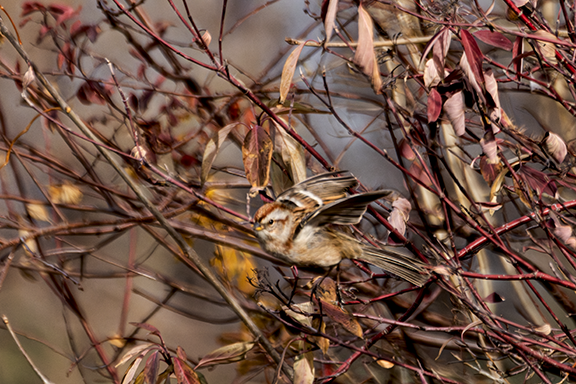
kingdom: Animalia
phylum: Chordata
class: Aves
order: Passeriformes
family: Passerellidae
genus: Spizelloides
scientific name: Spizelloides arborea
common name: American tree sparrow
